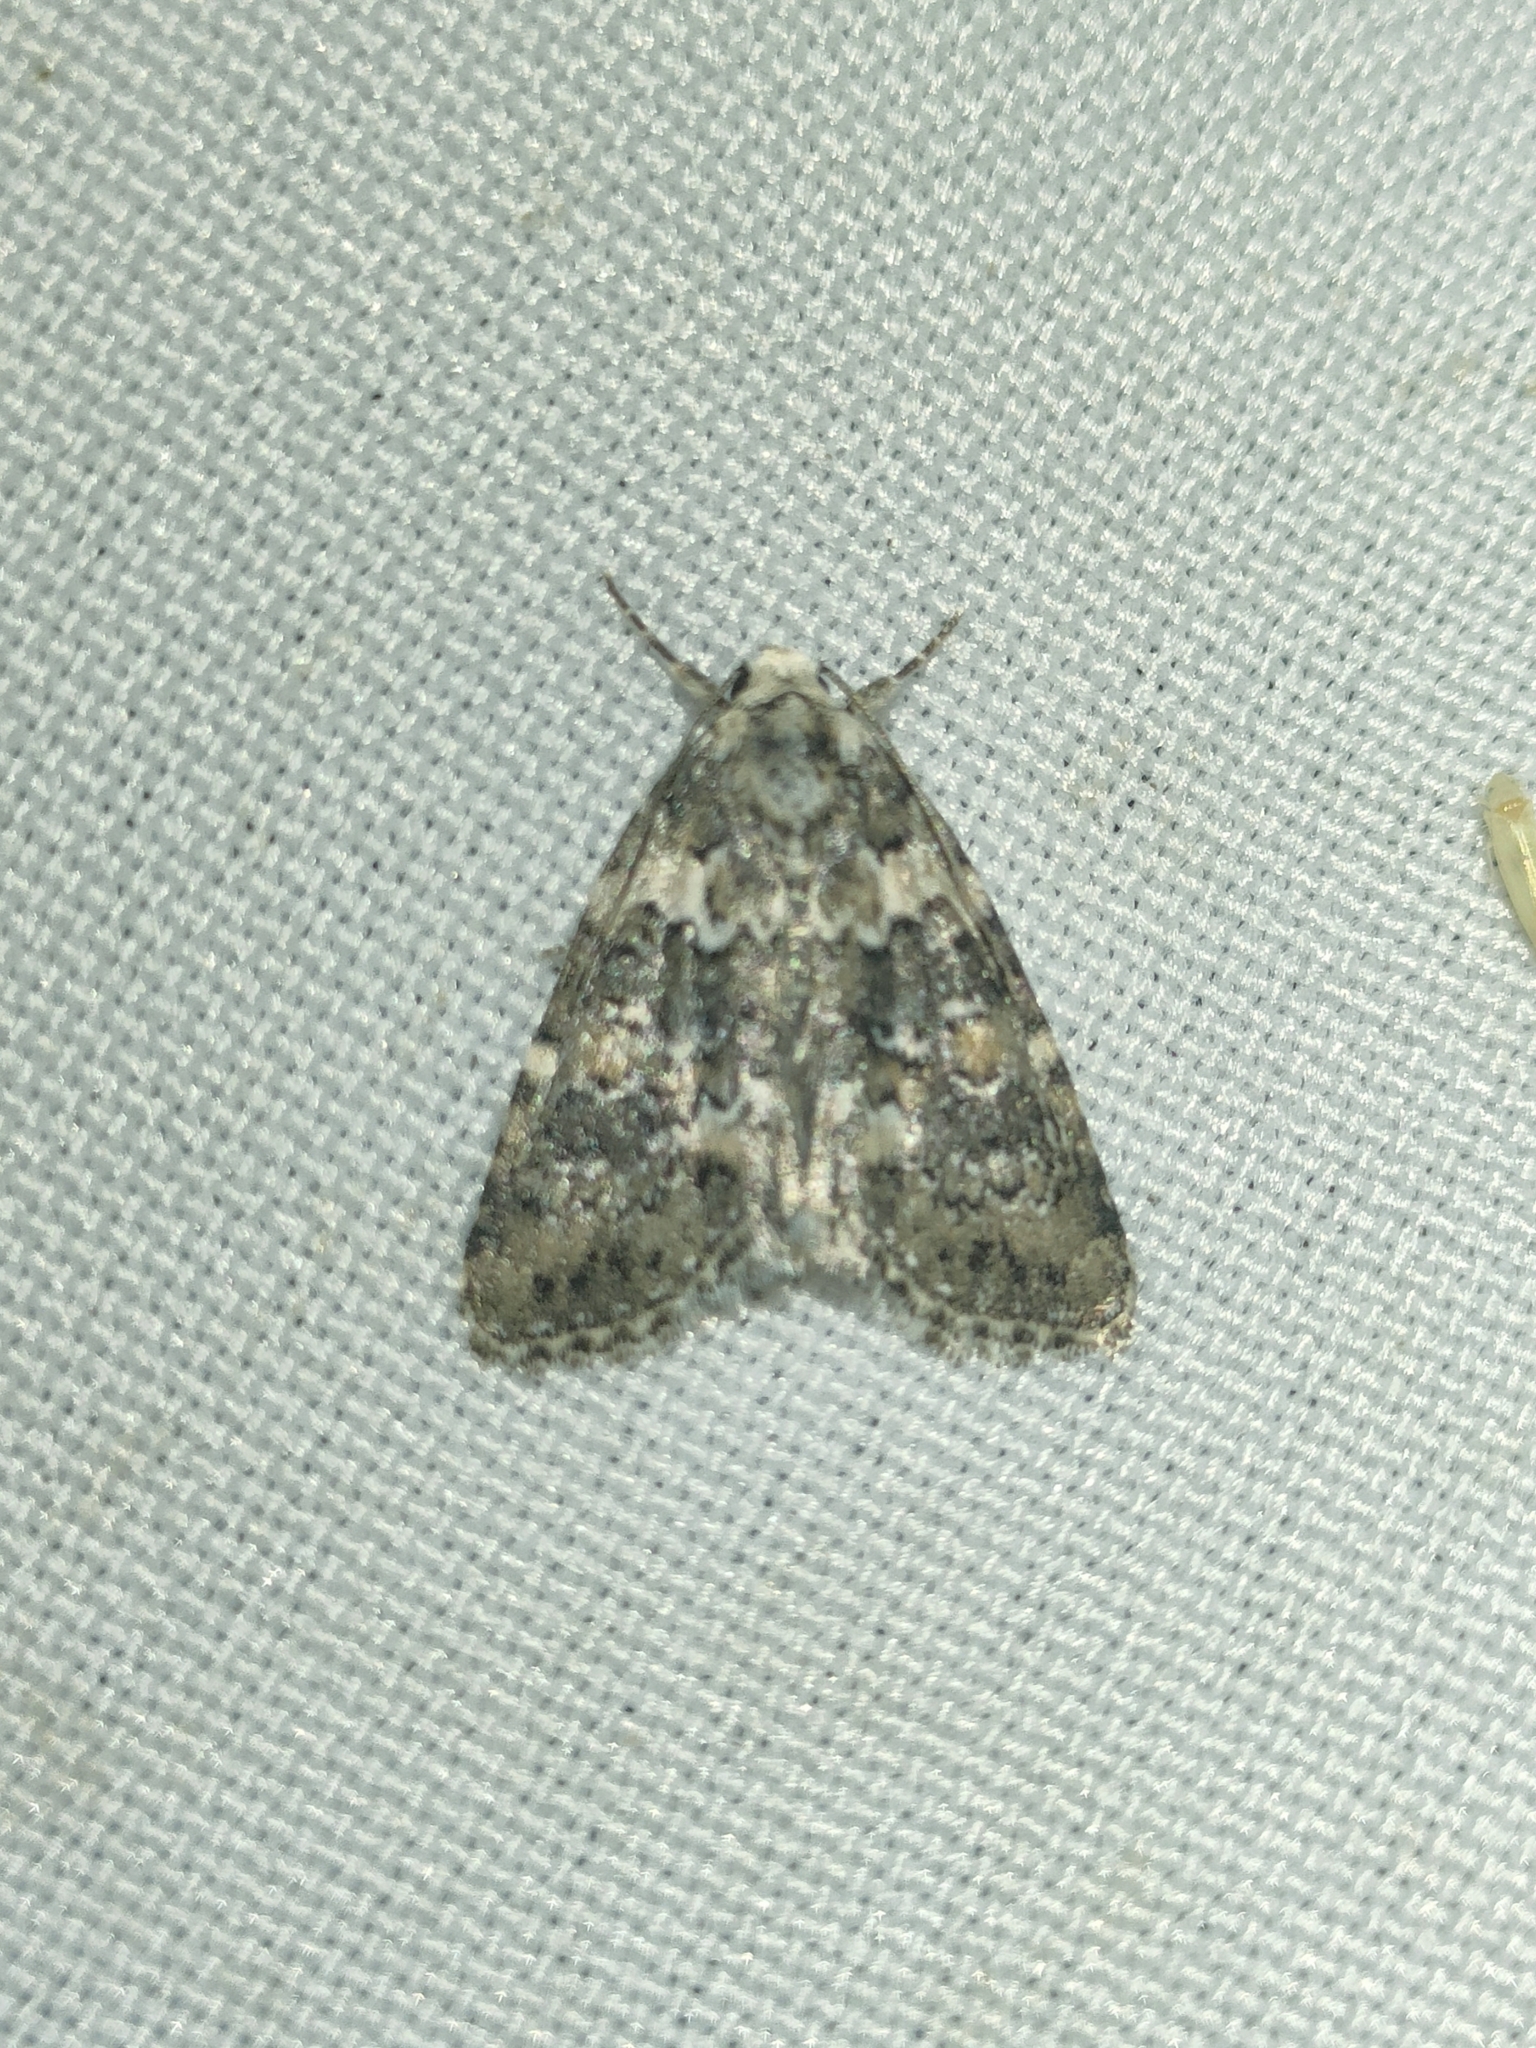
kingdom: Animalia
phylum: Arthropoda
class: Insecta
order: Lepidoptera
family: Noctuidae
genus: Bryophila
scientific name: Bryophila domestica
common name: Marbled beauty
